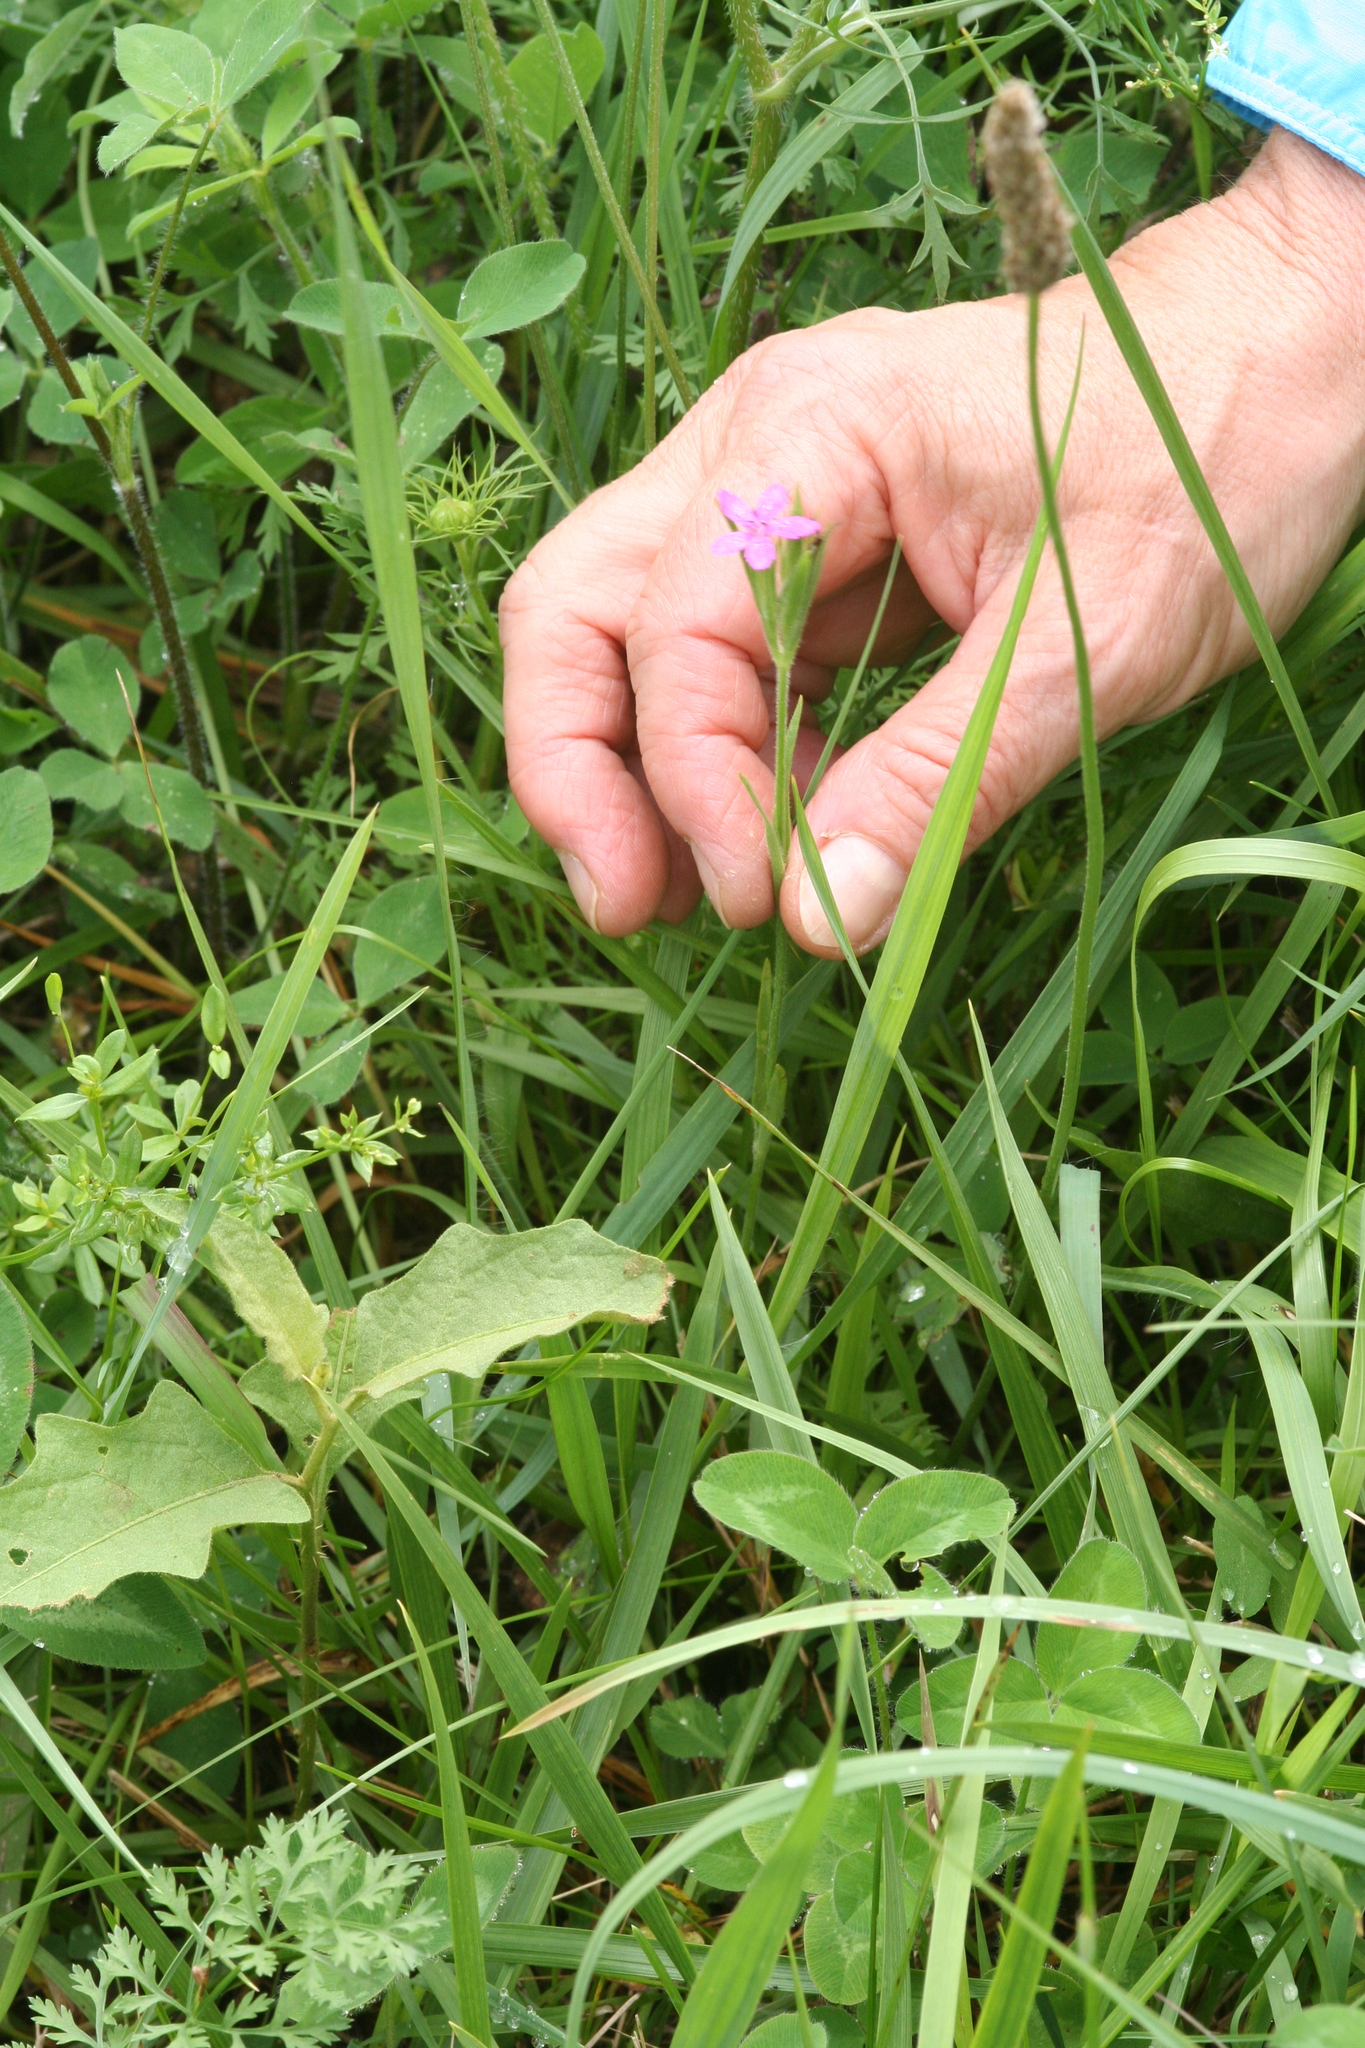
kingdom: Plantae
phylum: Tracheophyta
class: Magnoliopsida
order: Caryophyllales
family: Caryophyllaceae
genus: Dianthus
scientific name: Dianthus armeria
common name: Deptford pink
